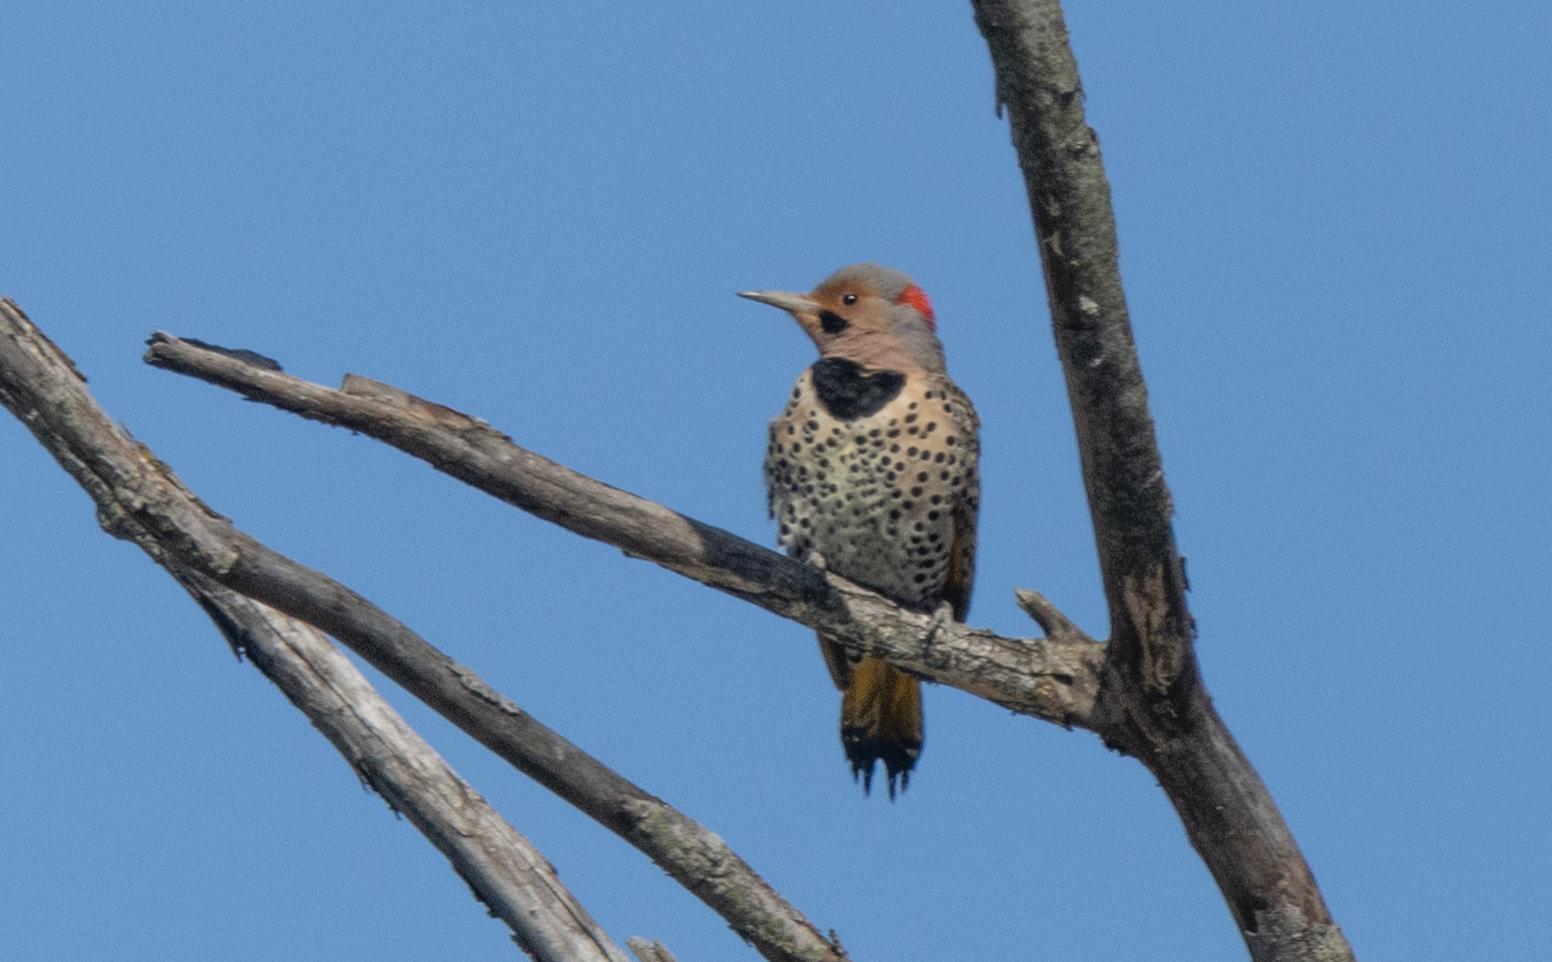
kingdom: Animalia
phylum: Chordata
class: Aves
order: Piciformes
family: Picidae
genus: Colaptes
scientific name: Colaptes auratus
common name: Northern flicker
